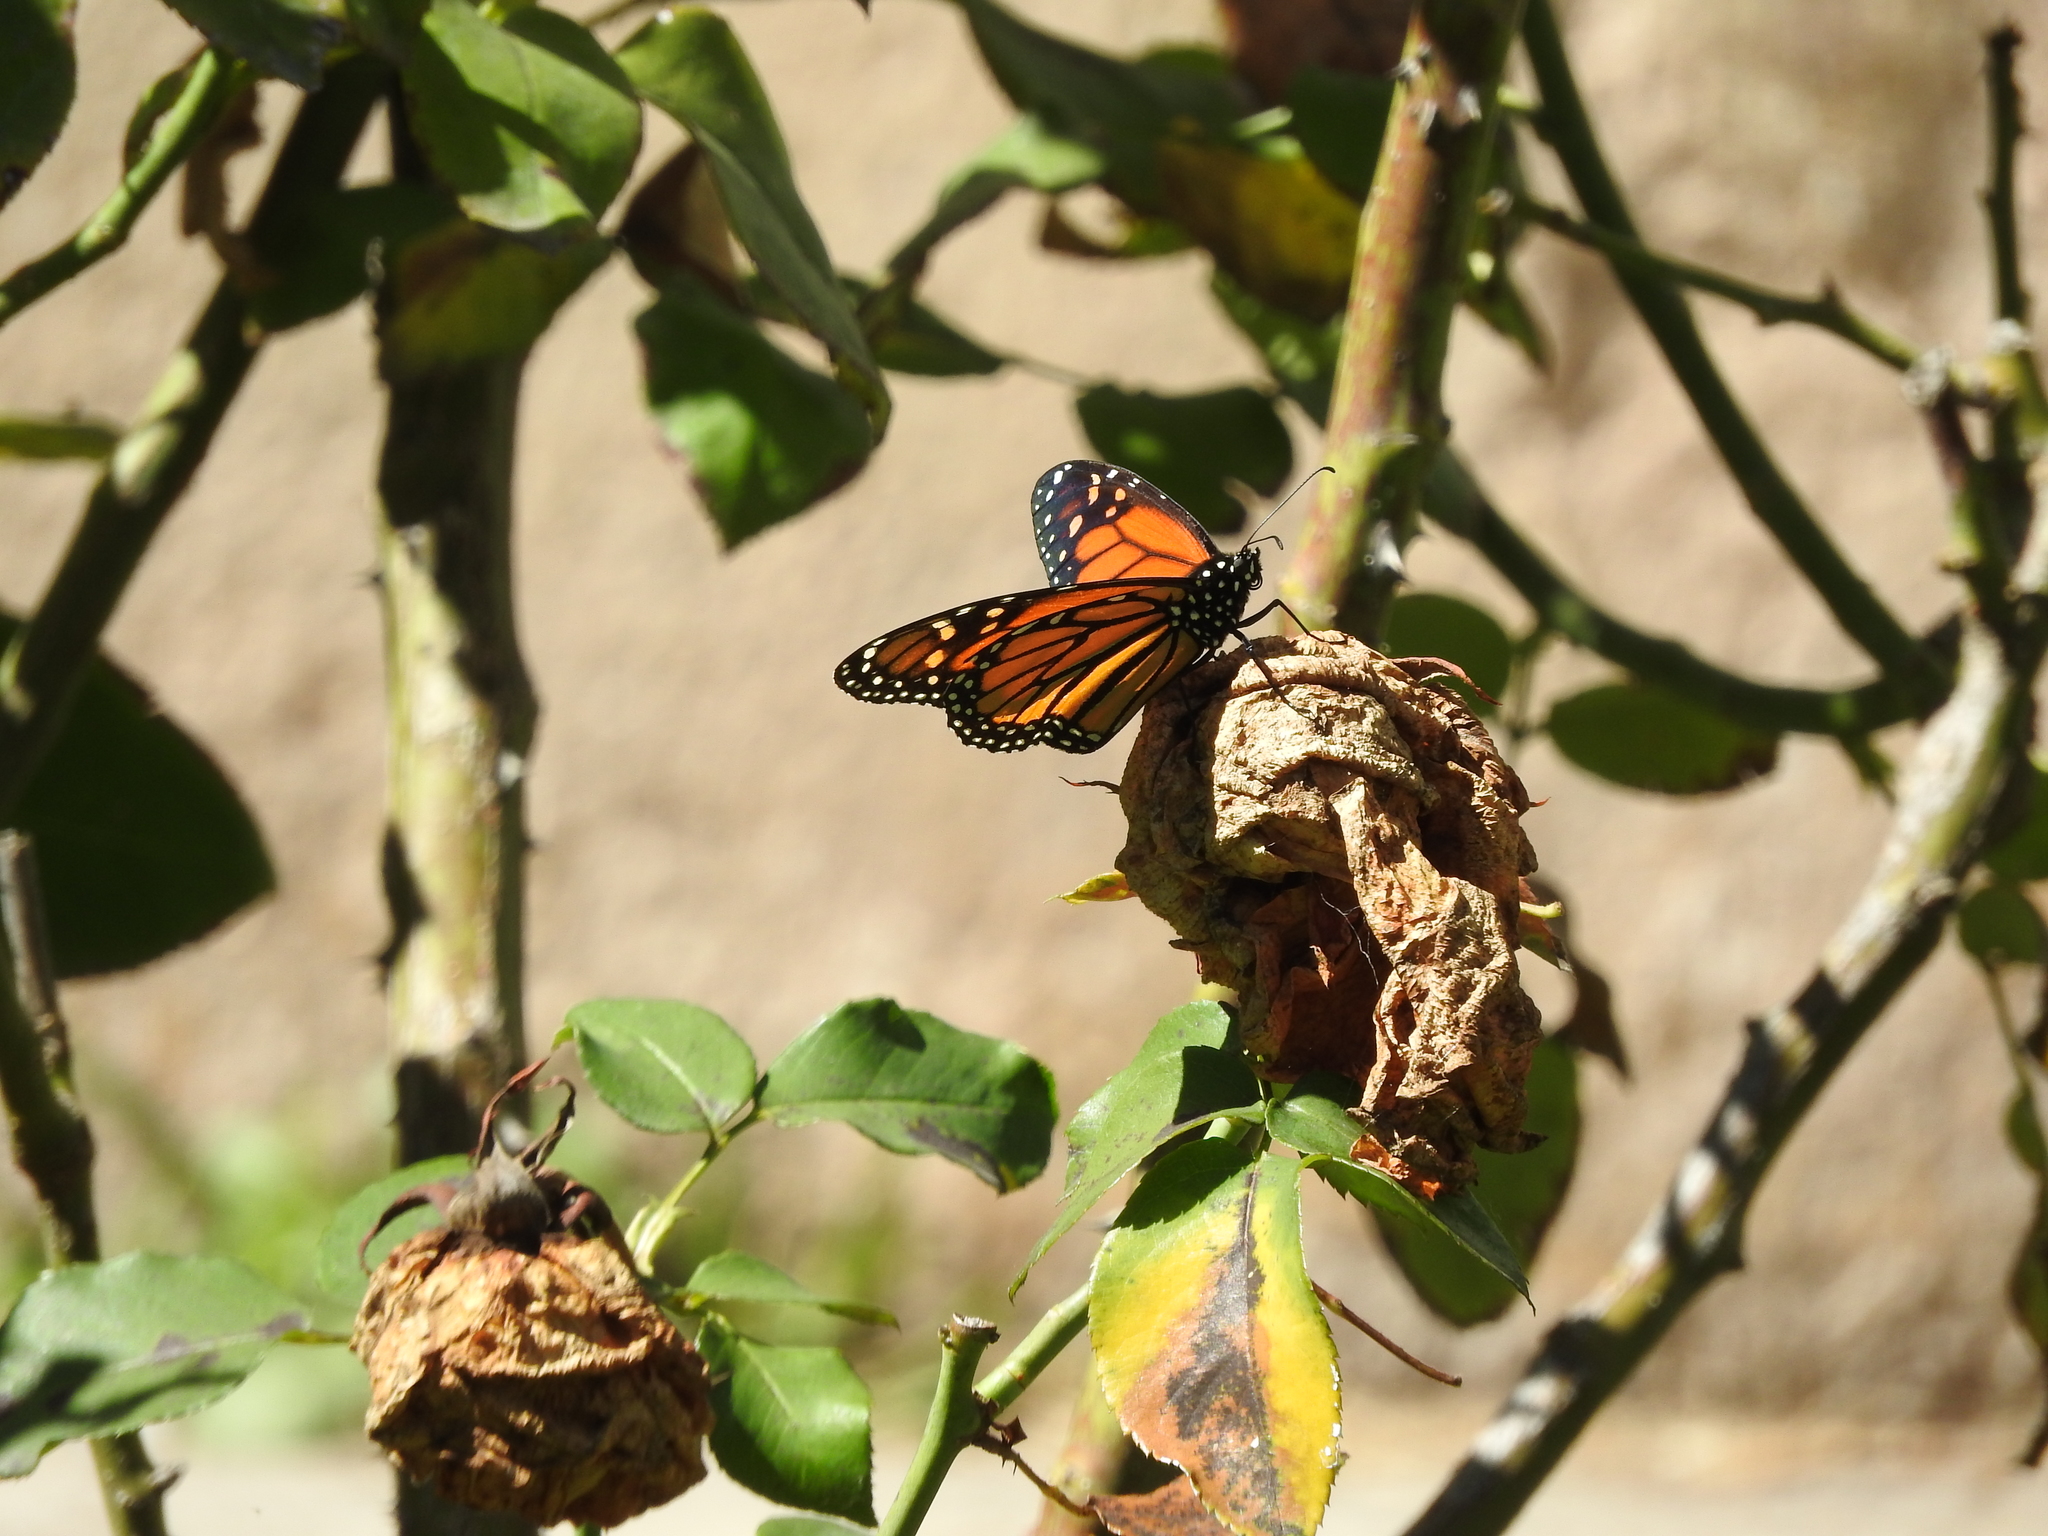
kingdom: Animalia
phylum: Arthropoda
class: Insecta
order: Lepidoptera
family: Nymphalidae
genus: Danaus
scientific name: Danaus plexippus
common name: Monarch
